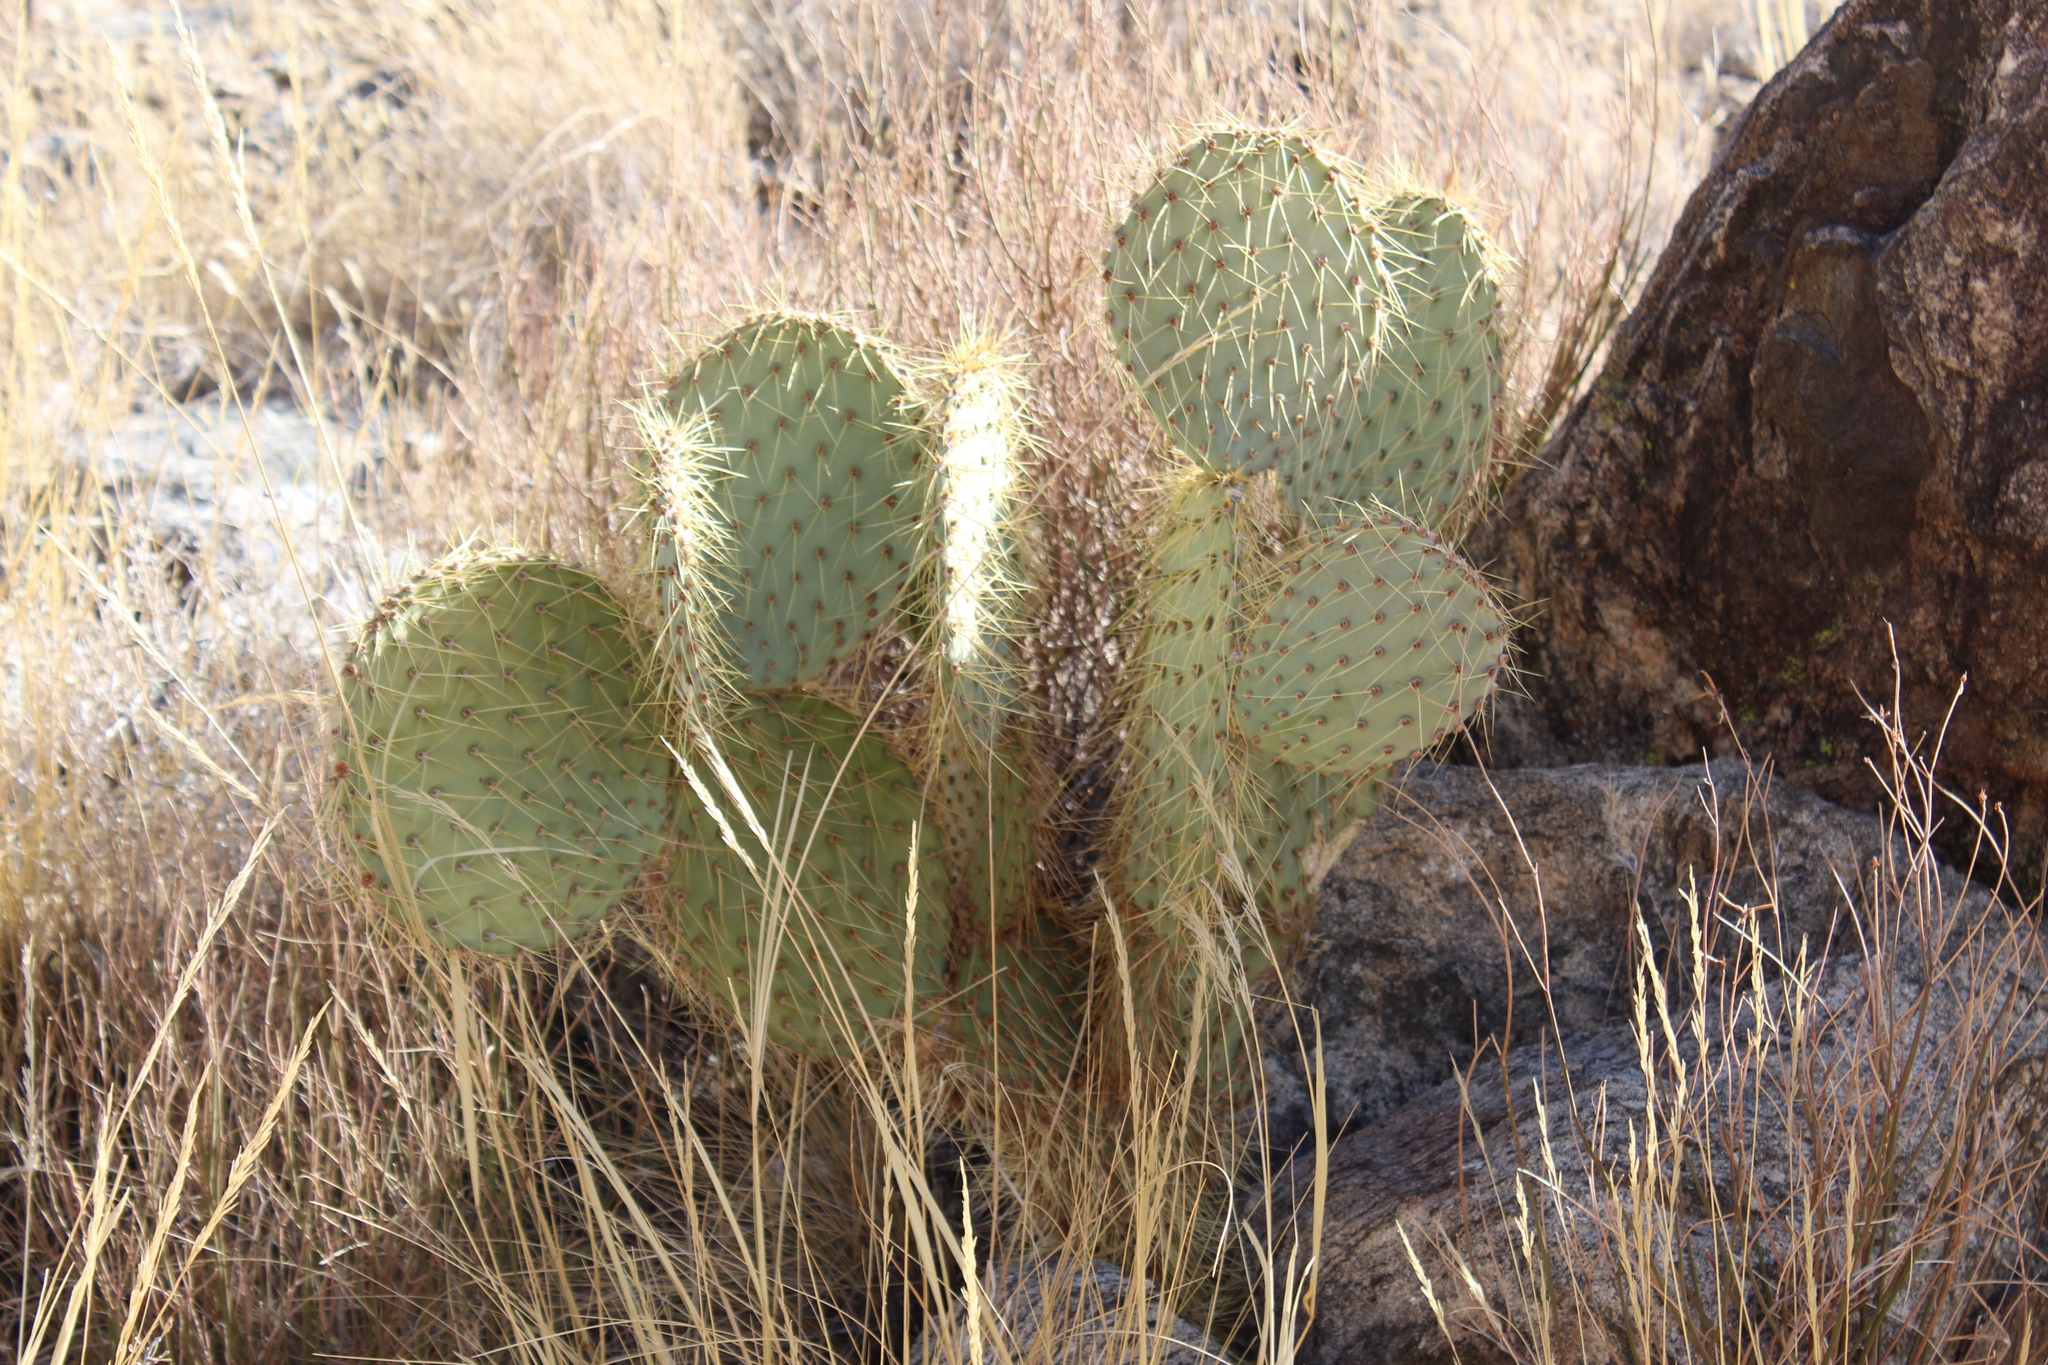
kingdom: Plantae
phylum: Tracheophyta
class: Magnoliopsida
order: Caryophyllales
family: Cactaceae
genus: Opuntia
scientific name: Opuntia chlorotica
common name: Dollar-joint prickly-pear
